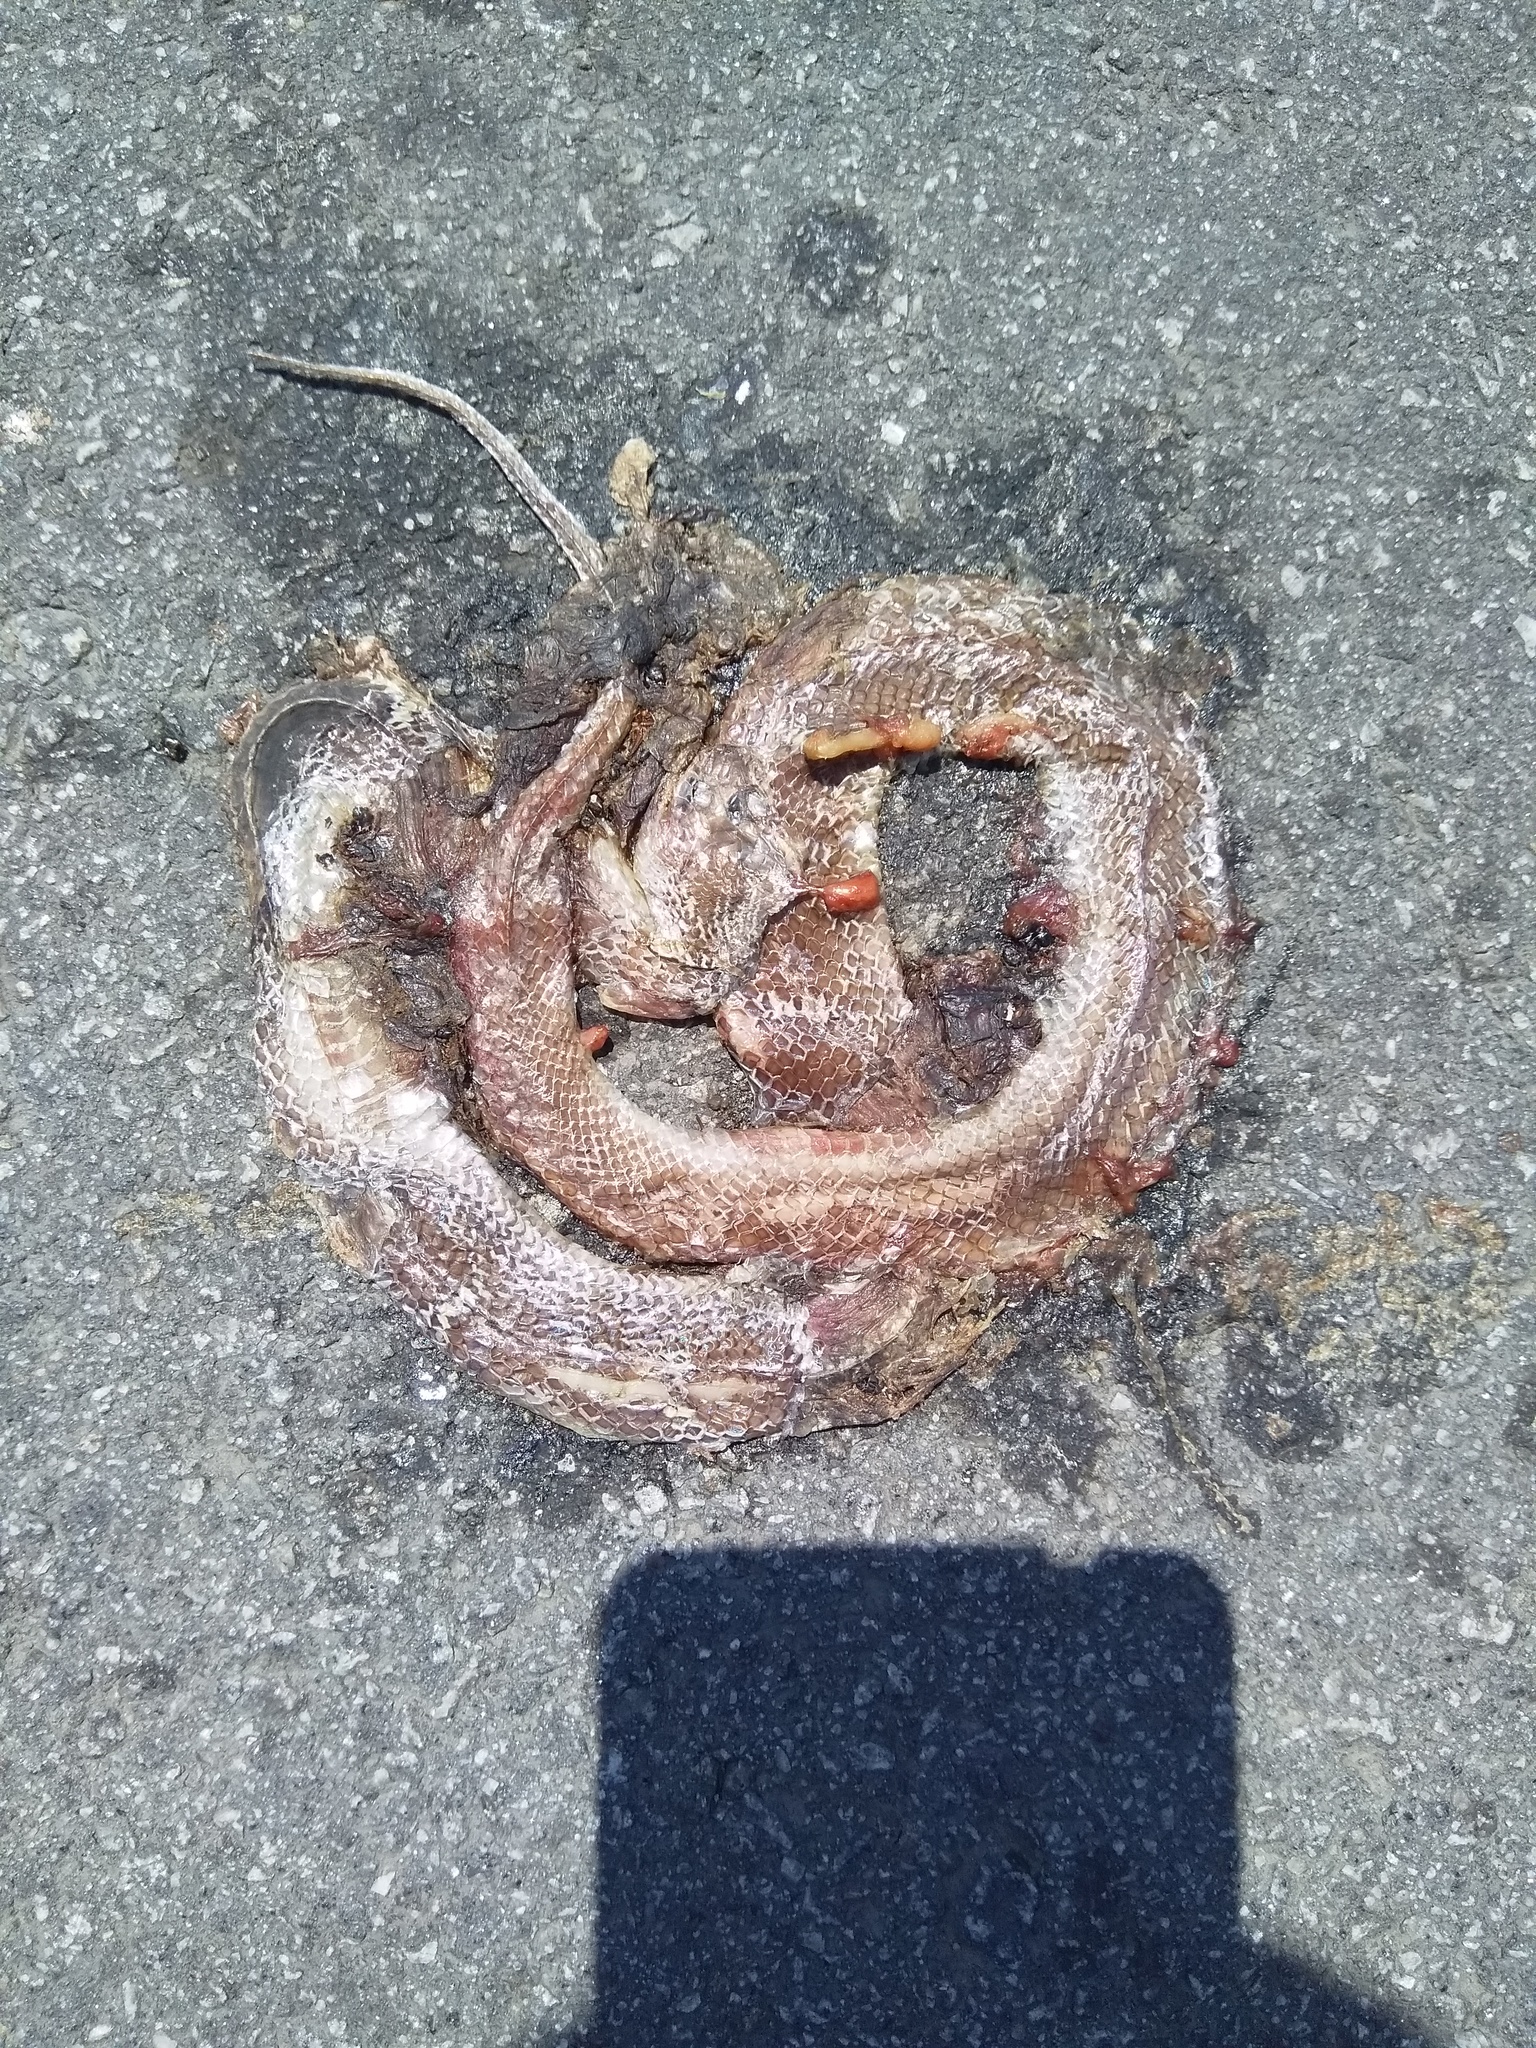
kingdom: Animalia
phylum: Chordata
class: Squamata
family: Colubridae
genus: Lycodon
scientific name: Lycodon aulicus
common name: Common wolf snake
